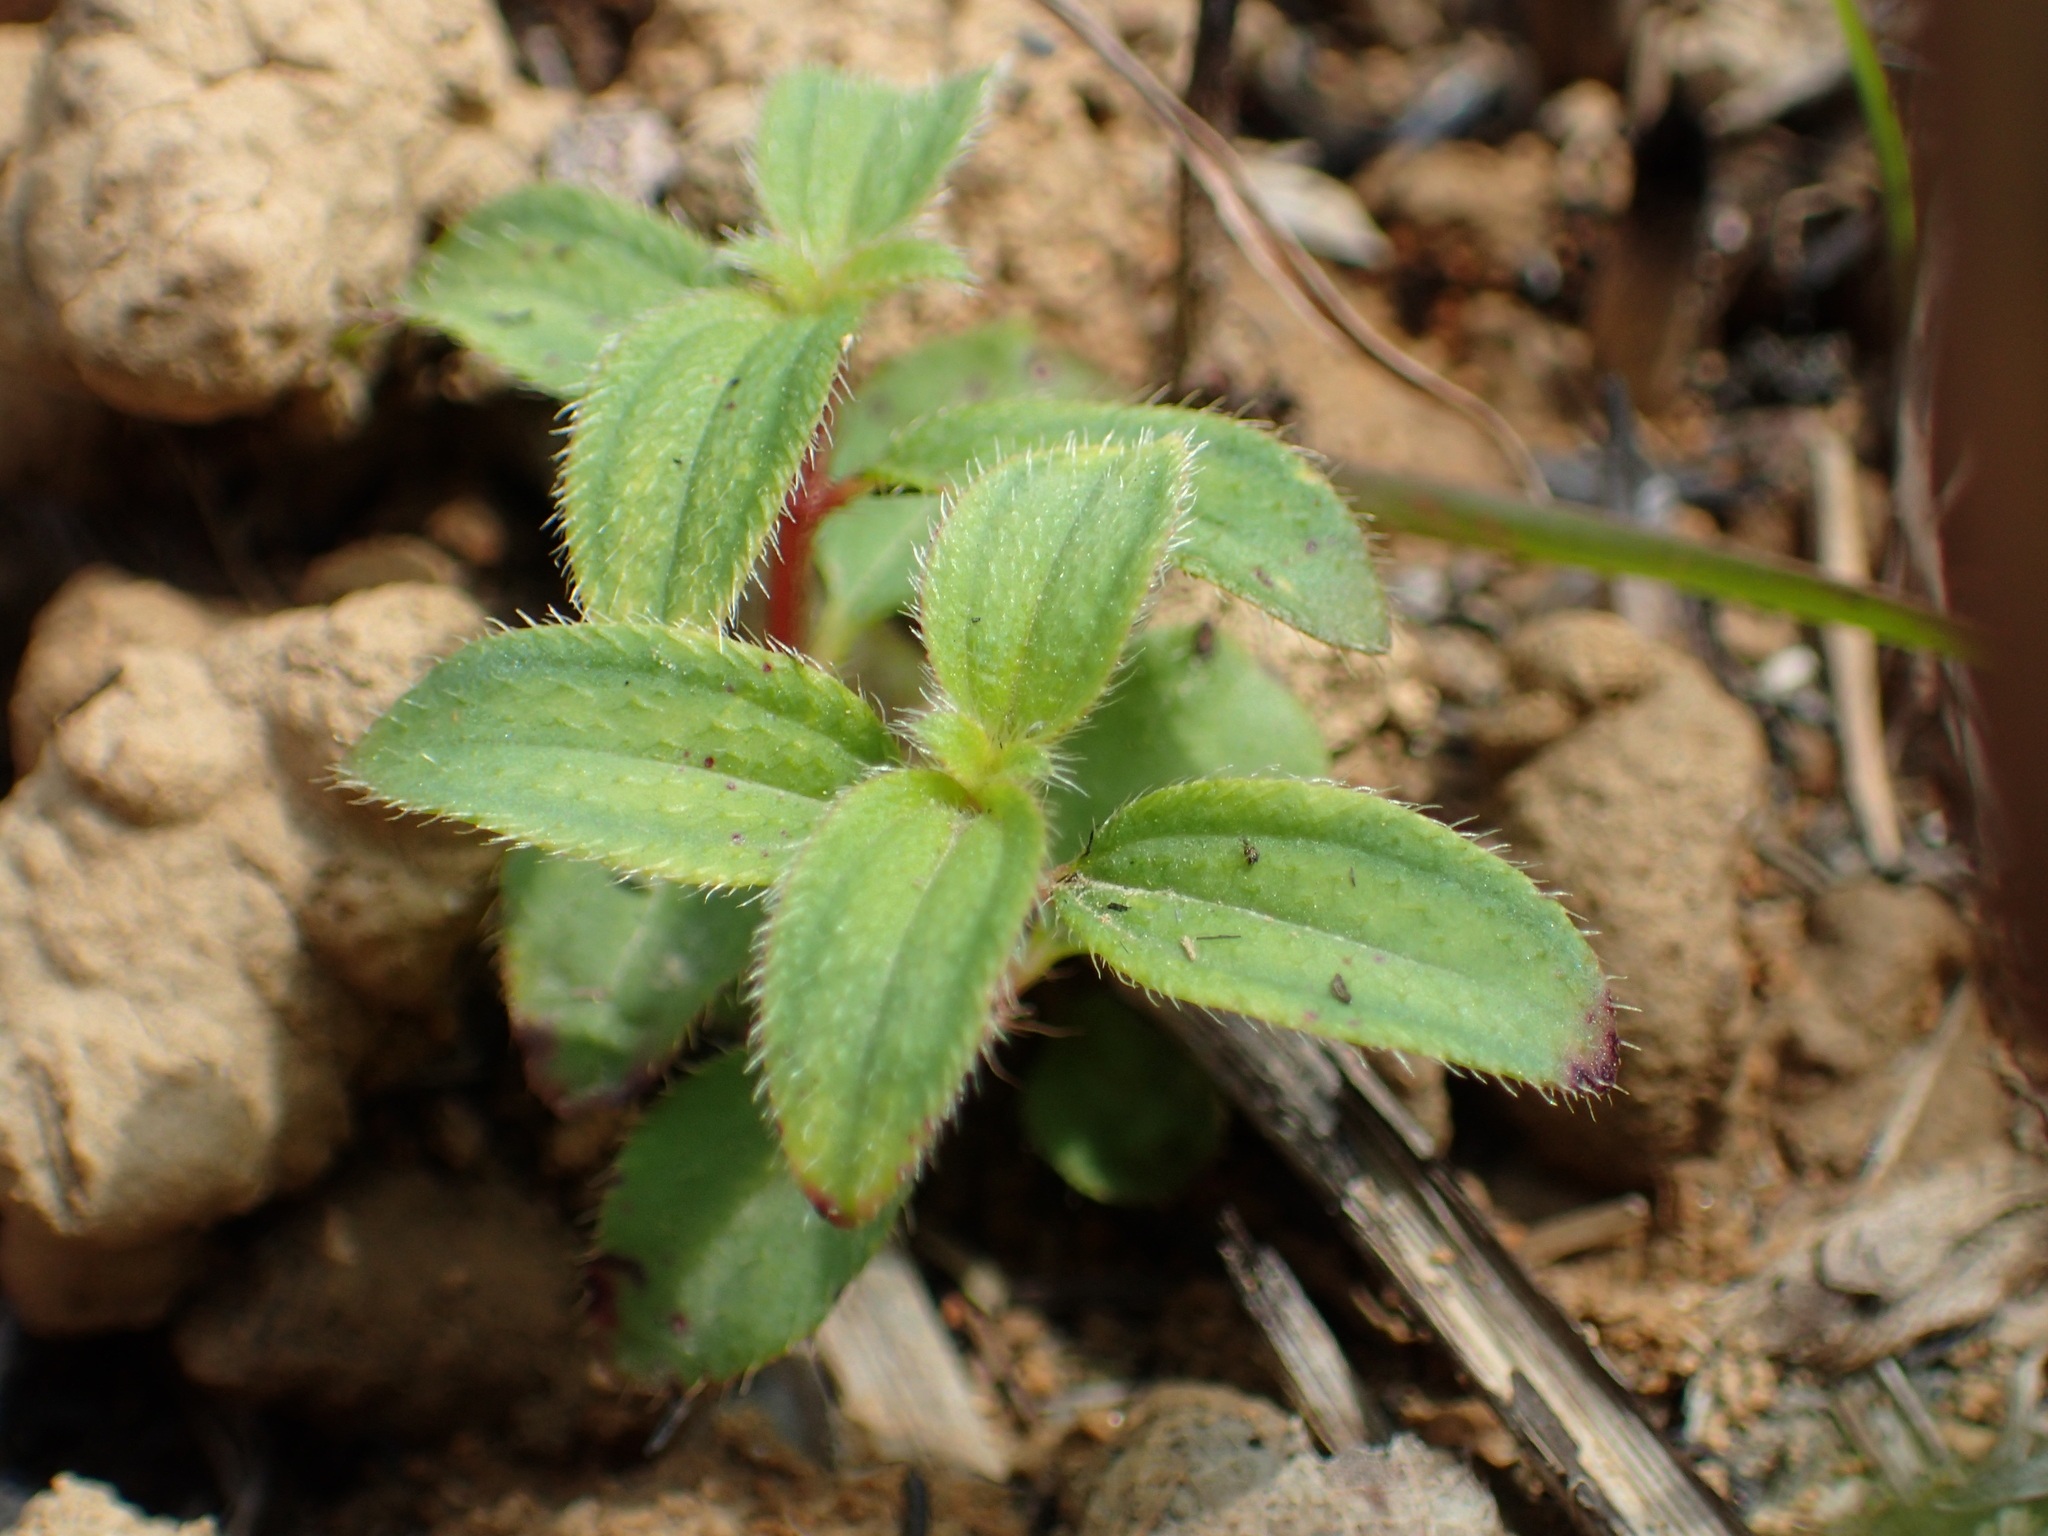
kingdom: Plantae
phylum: Tracheophyta
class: Magnoliopsida
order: Myrtales
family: Melastomataceae
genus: Osbeckia
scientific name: Osbeckia chinensis
